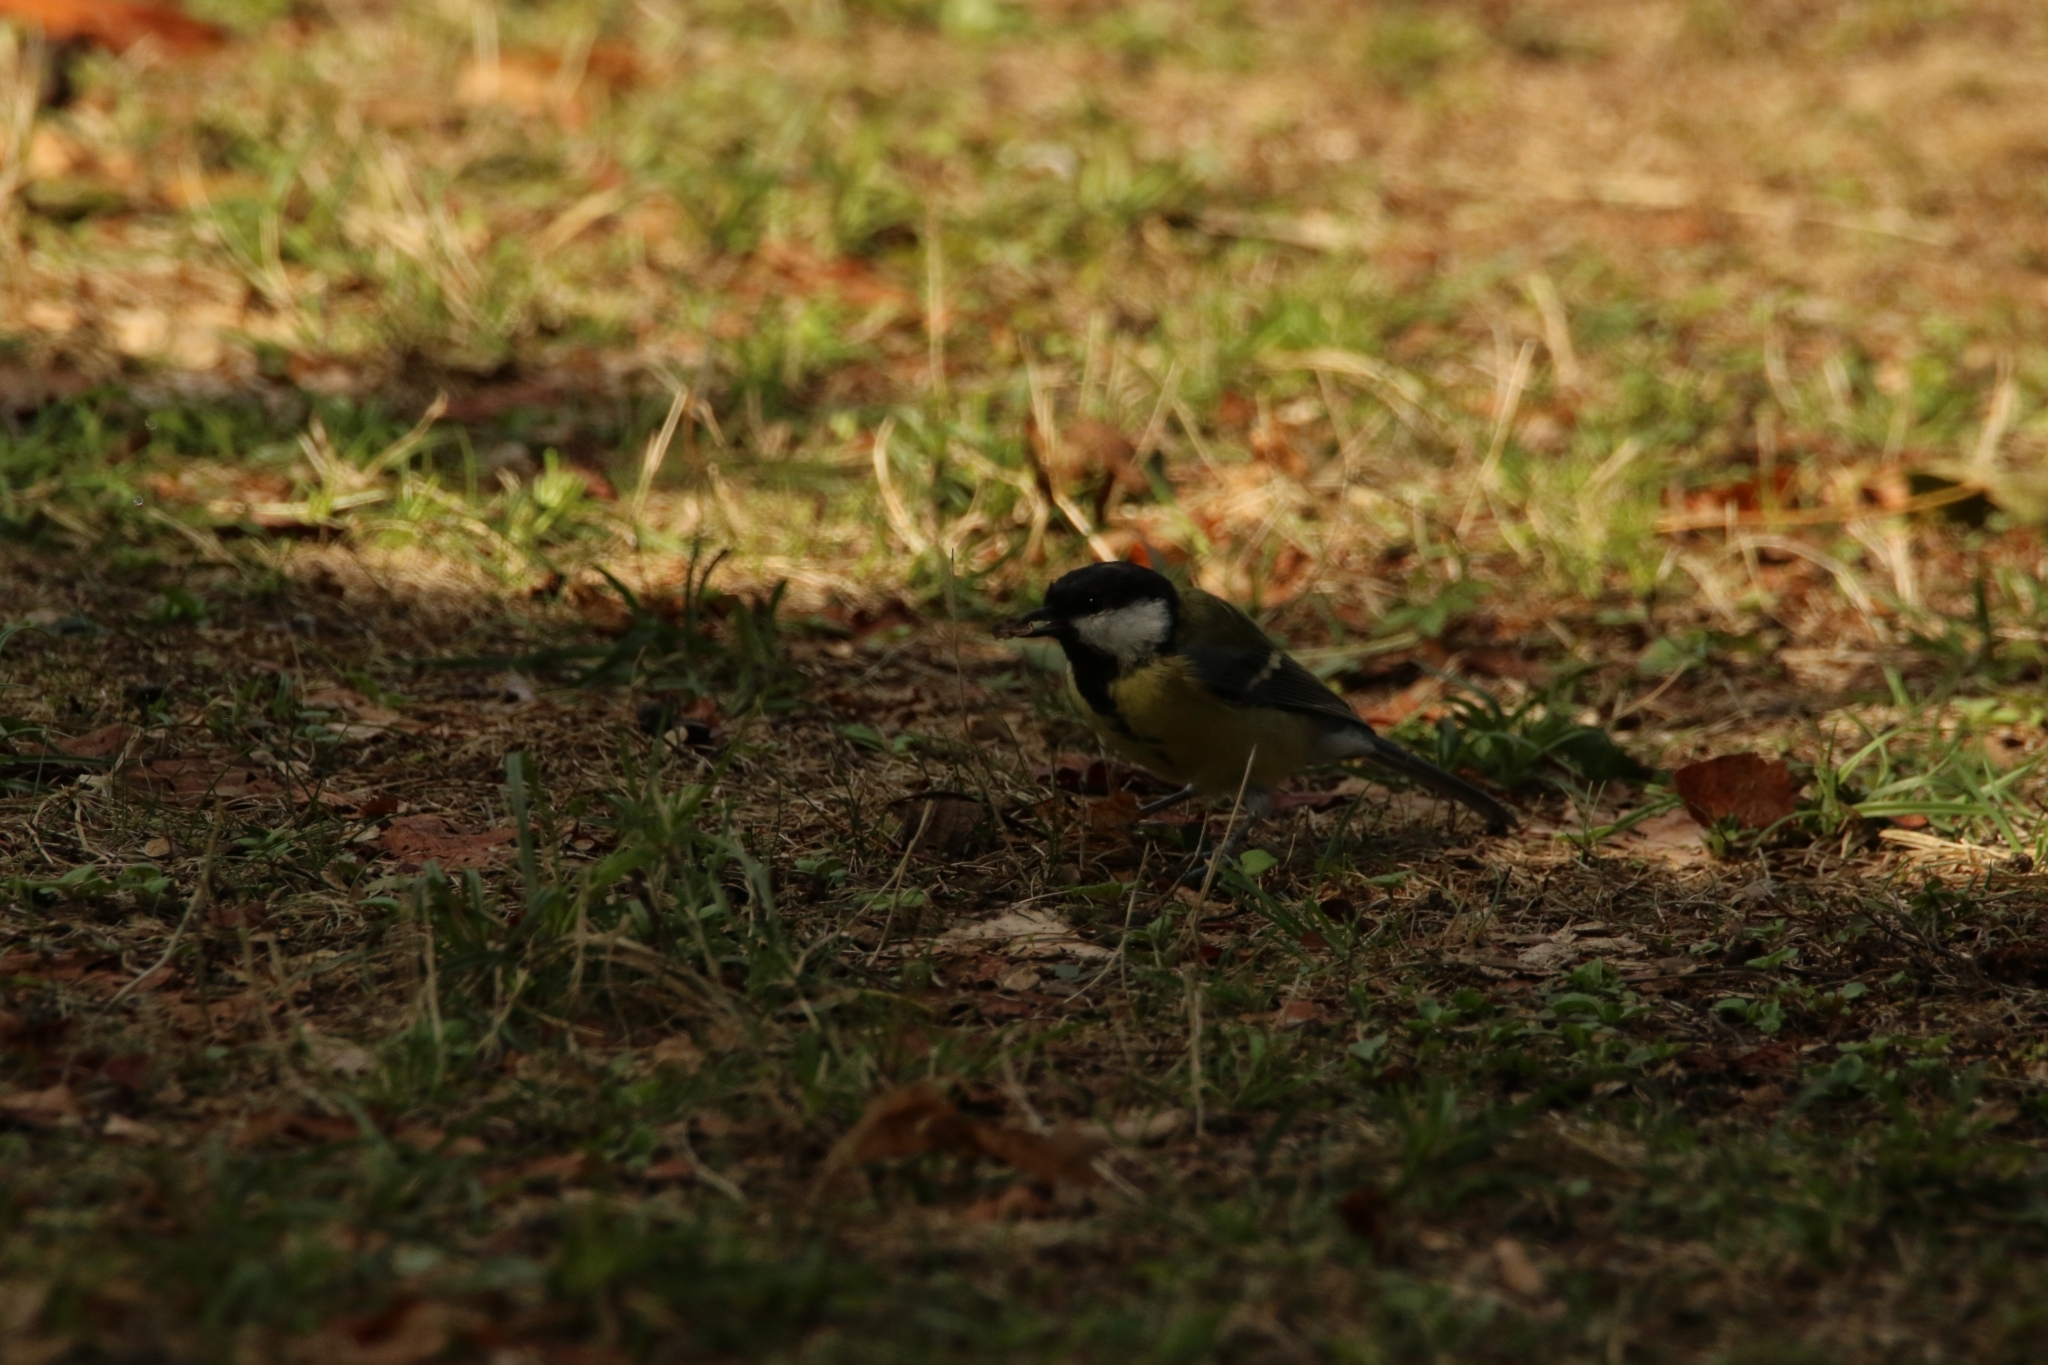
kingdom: Animalia
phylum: Chordata
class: Aves
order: Passeriformes
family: Paridae
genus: Parus
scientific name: Parus major
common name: Great tit
